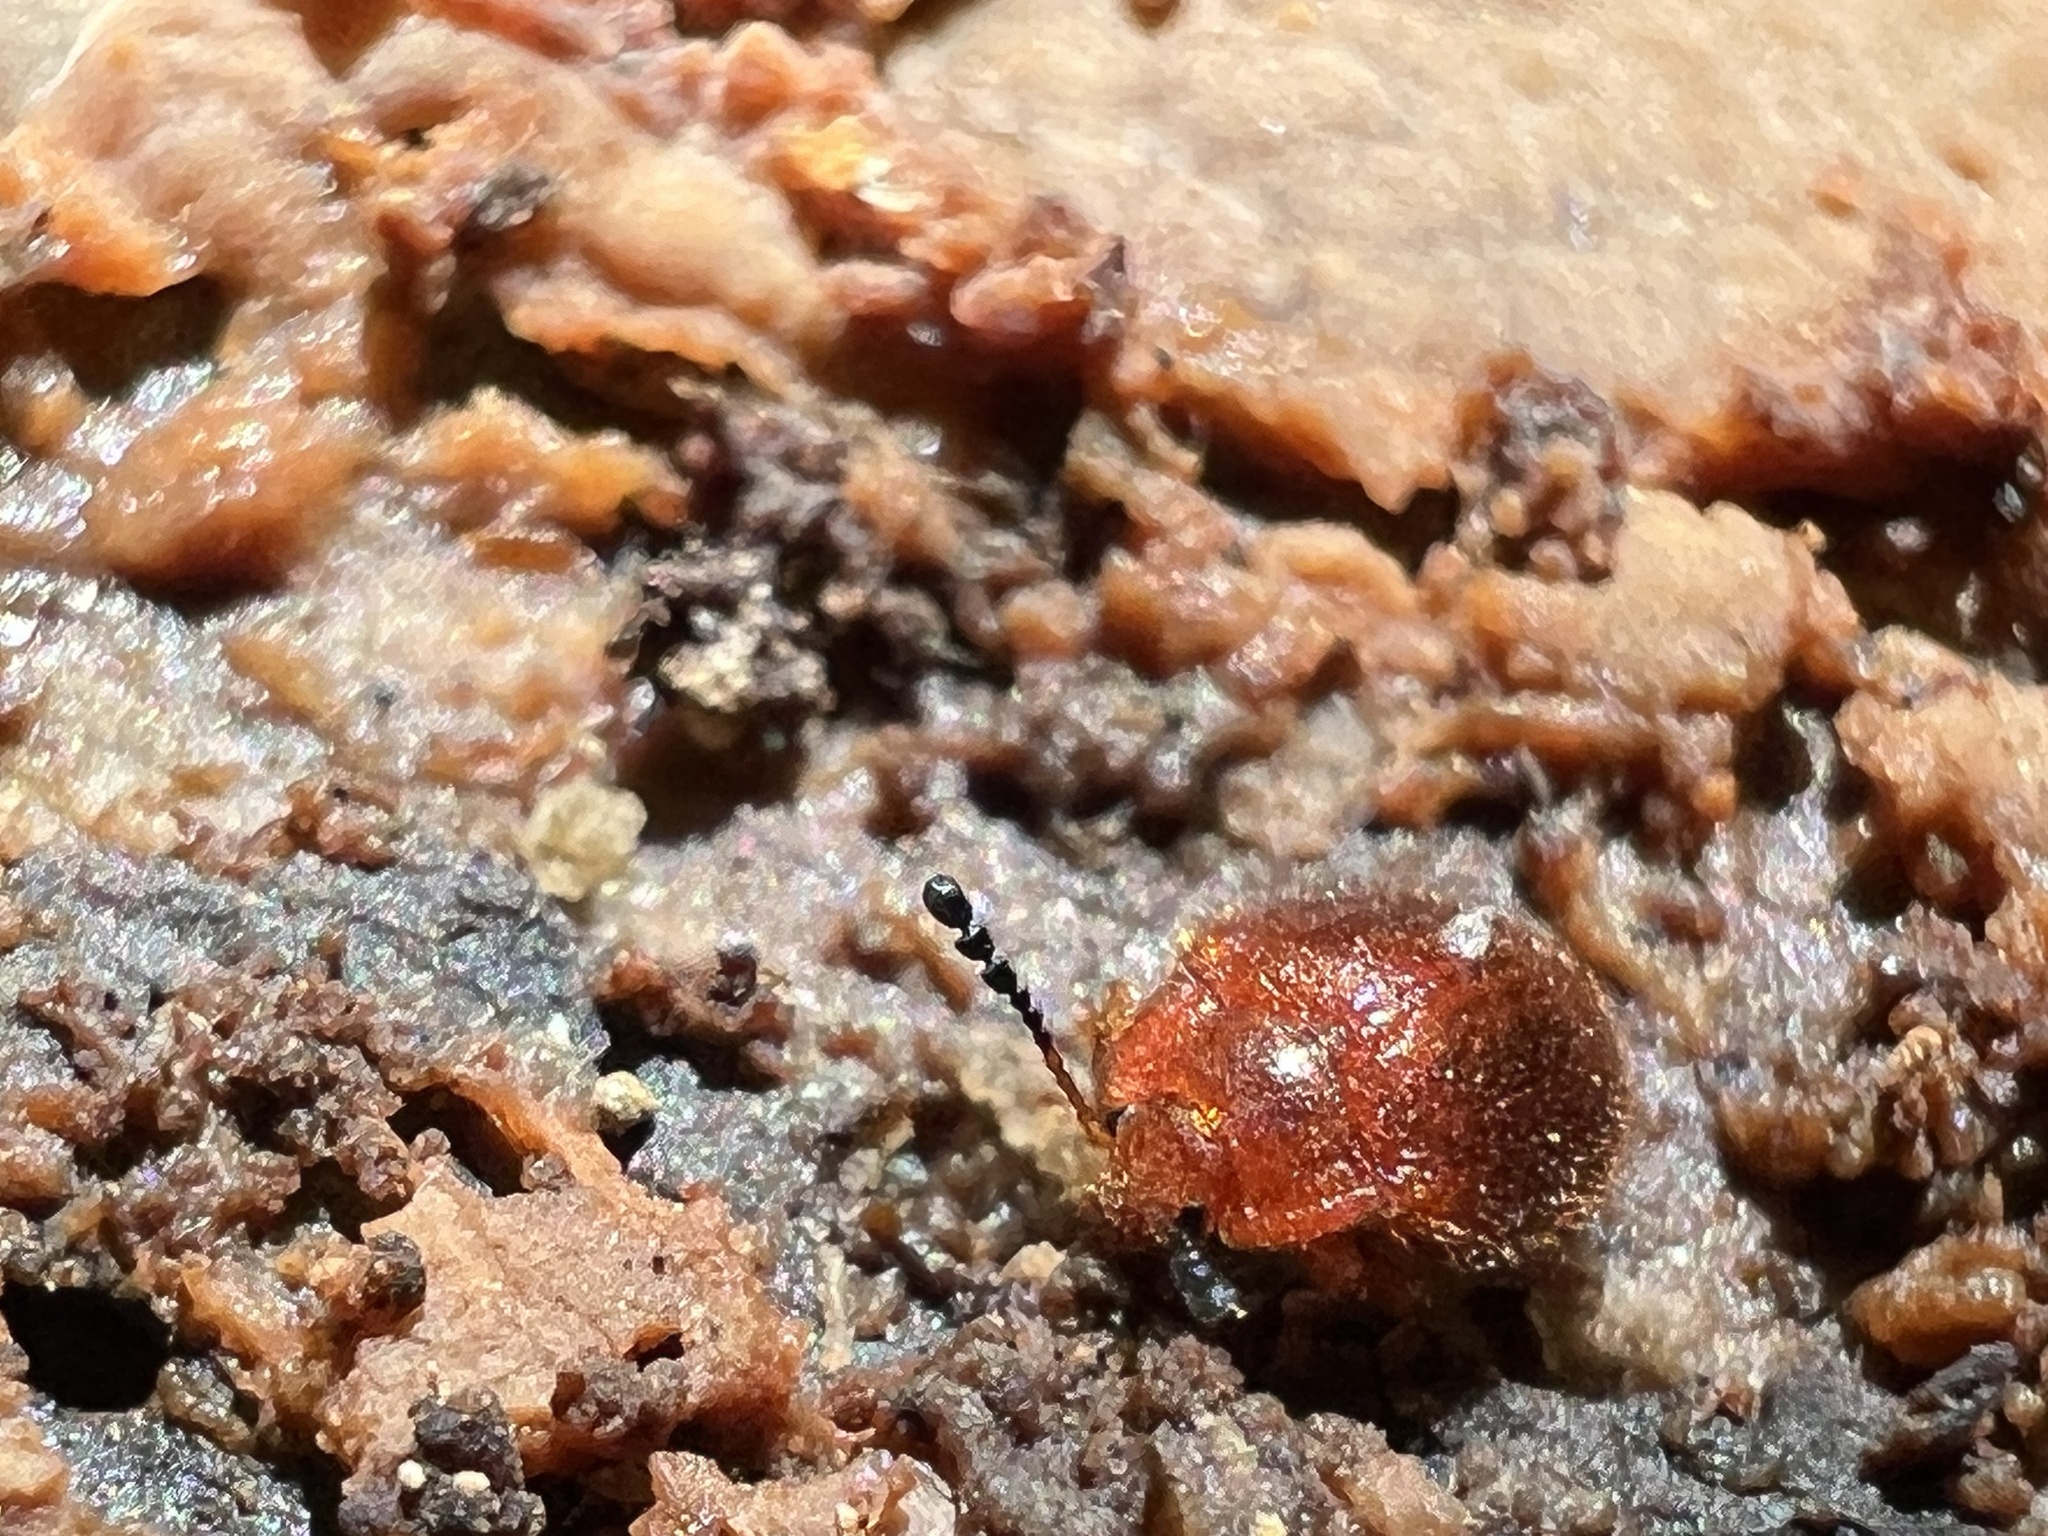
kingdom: Animalia
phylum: Arthropoda
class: Insecta
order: Coleoptera
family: Endomychidae
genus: Stenotarsus
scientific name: Stenotarsus blatchleyi
